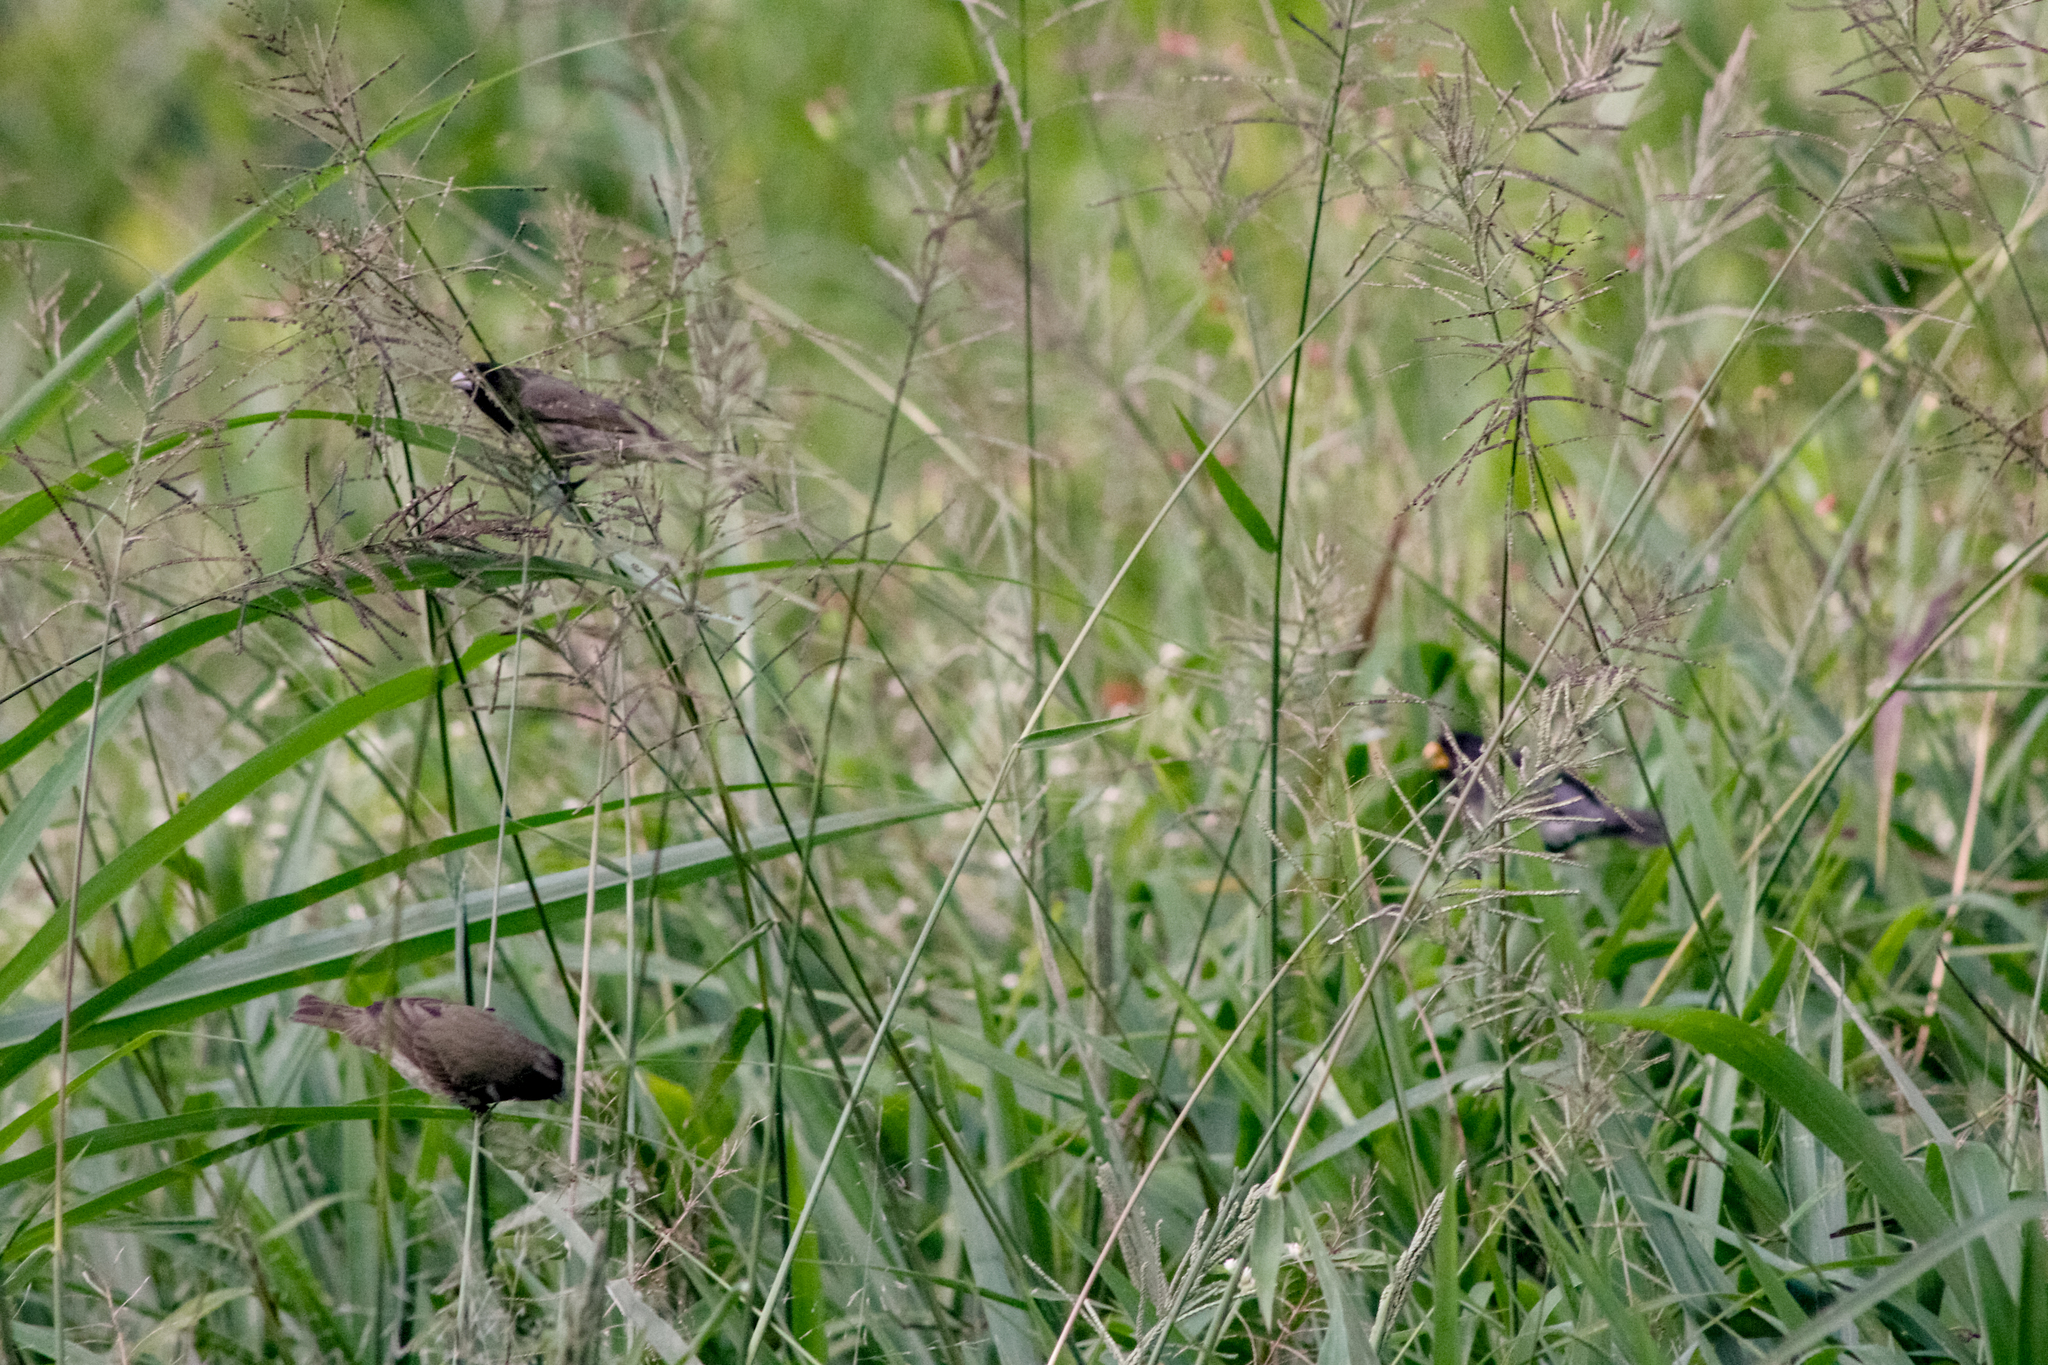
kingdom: Animalia
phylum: Chordata
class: Aves
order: Passeriformes
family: Thraupidae
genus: Sporophila
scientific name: Sporophila nigricollis
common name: Yellow-bellied seedeater
